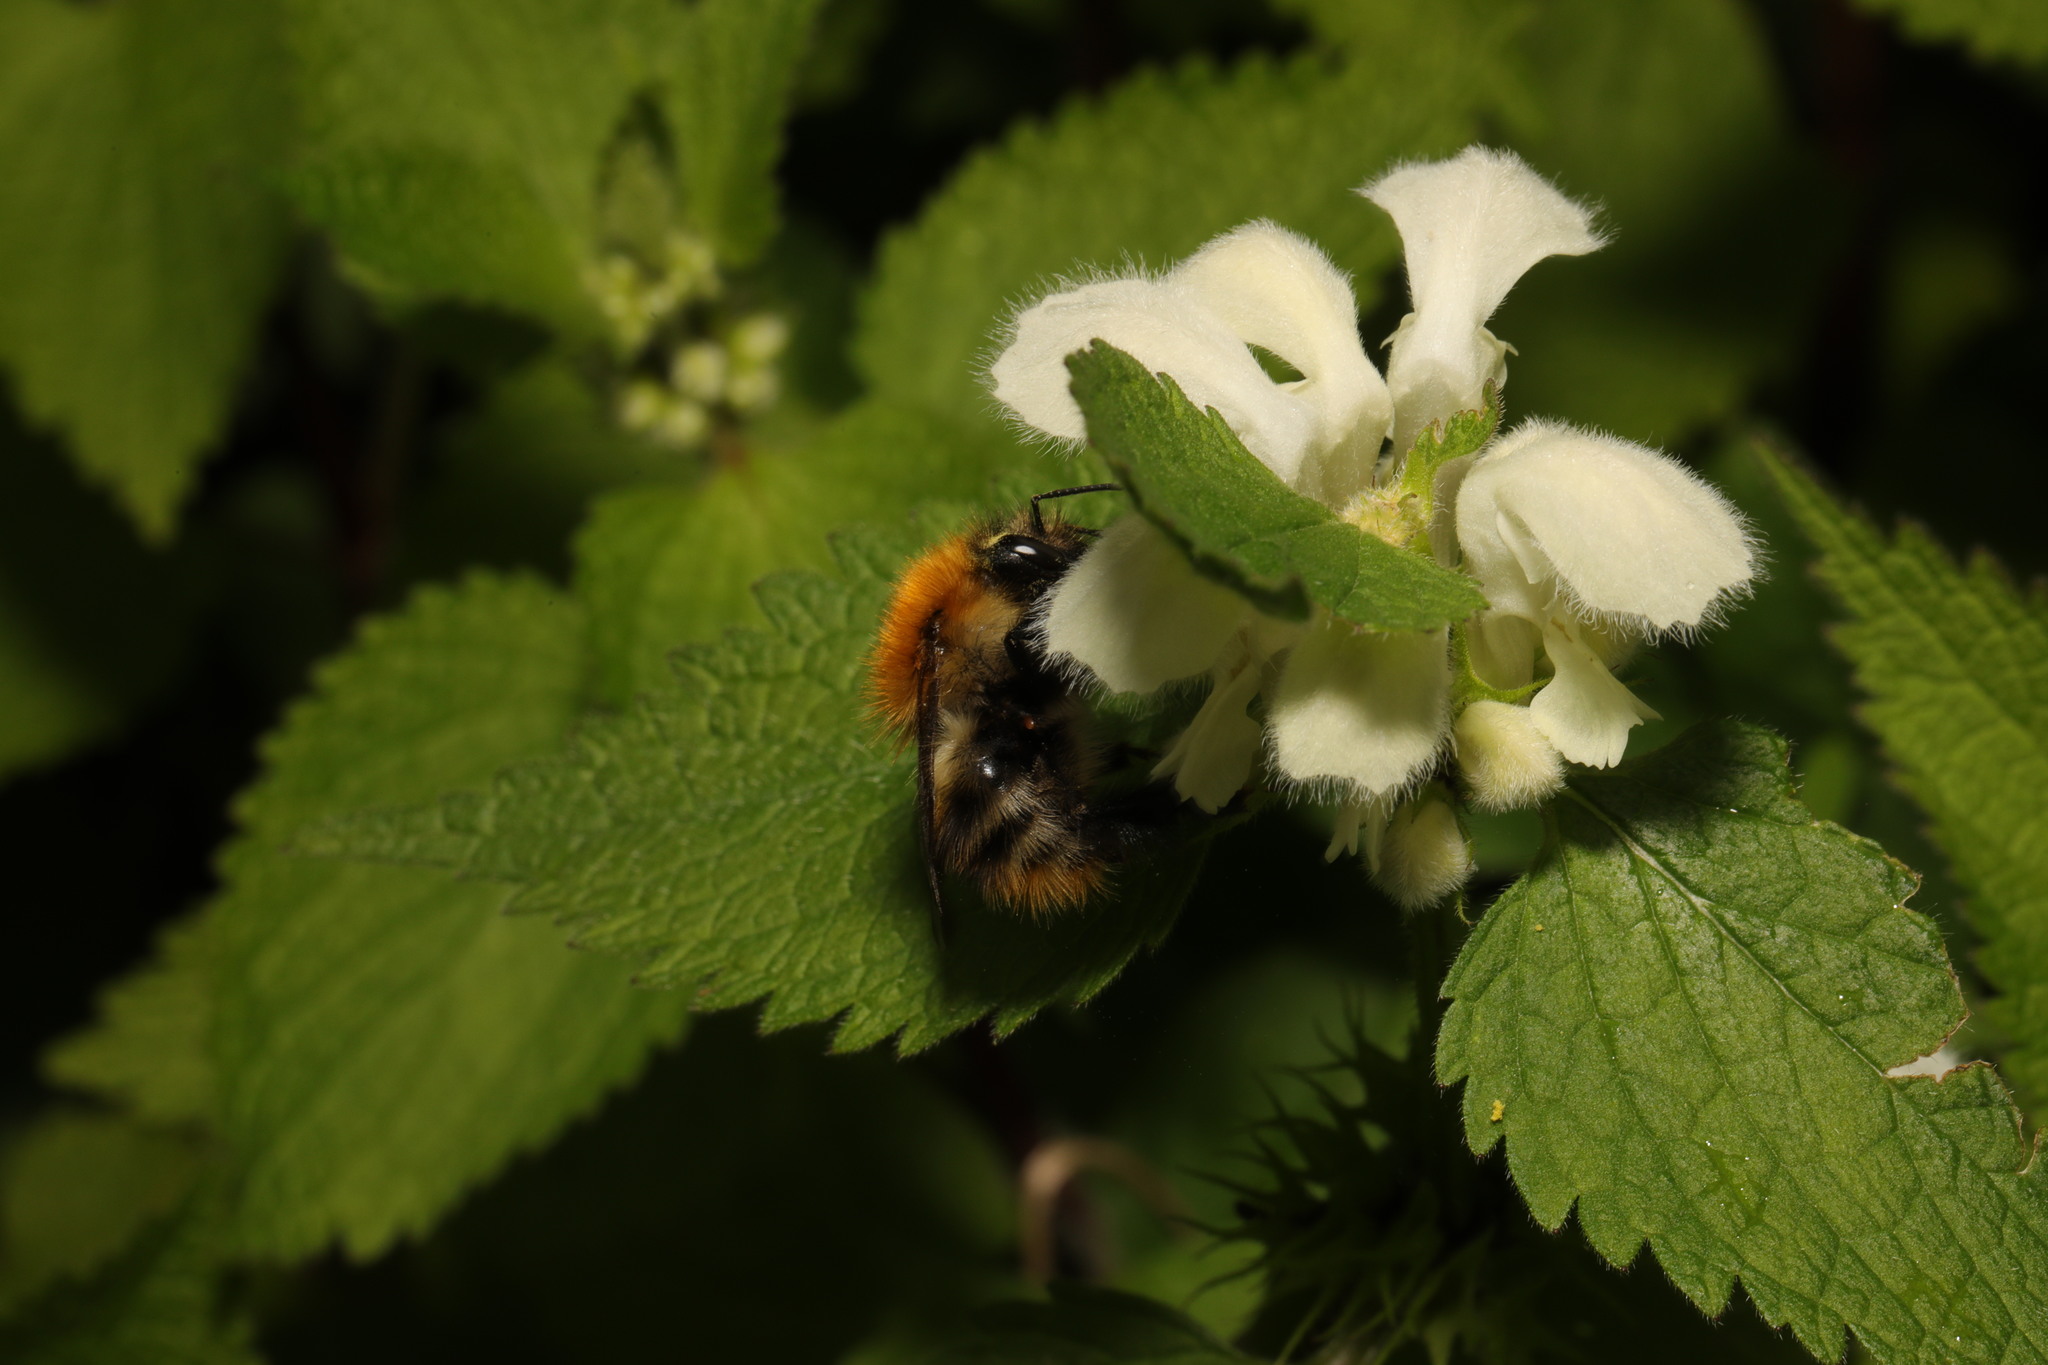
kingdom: Animalia
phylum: Arthropoda
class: Insecta
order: Hymenoptera
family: Apidae
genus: Bombus
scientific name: Bombus pascuorum
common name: Common carder bee
